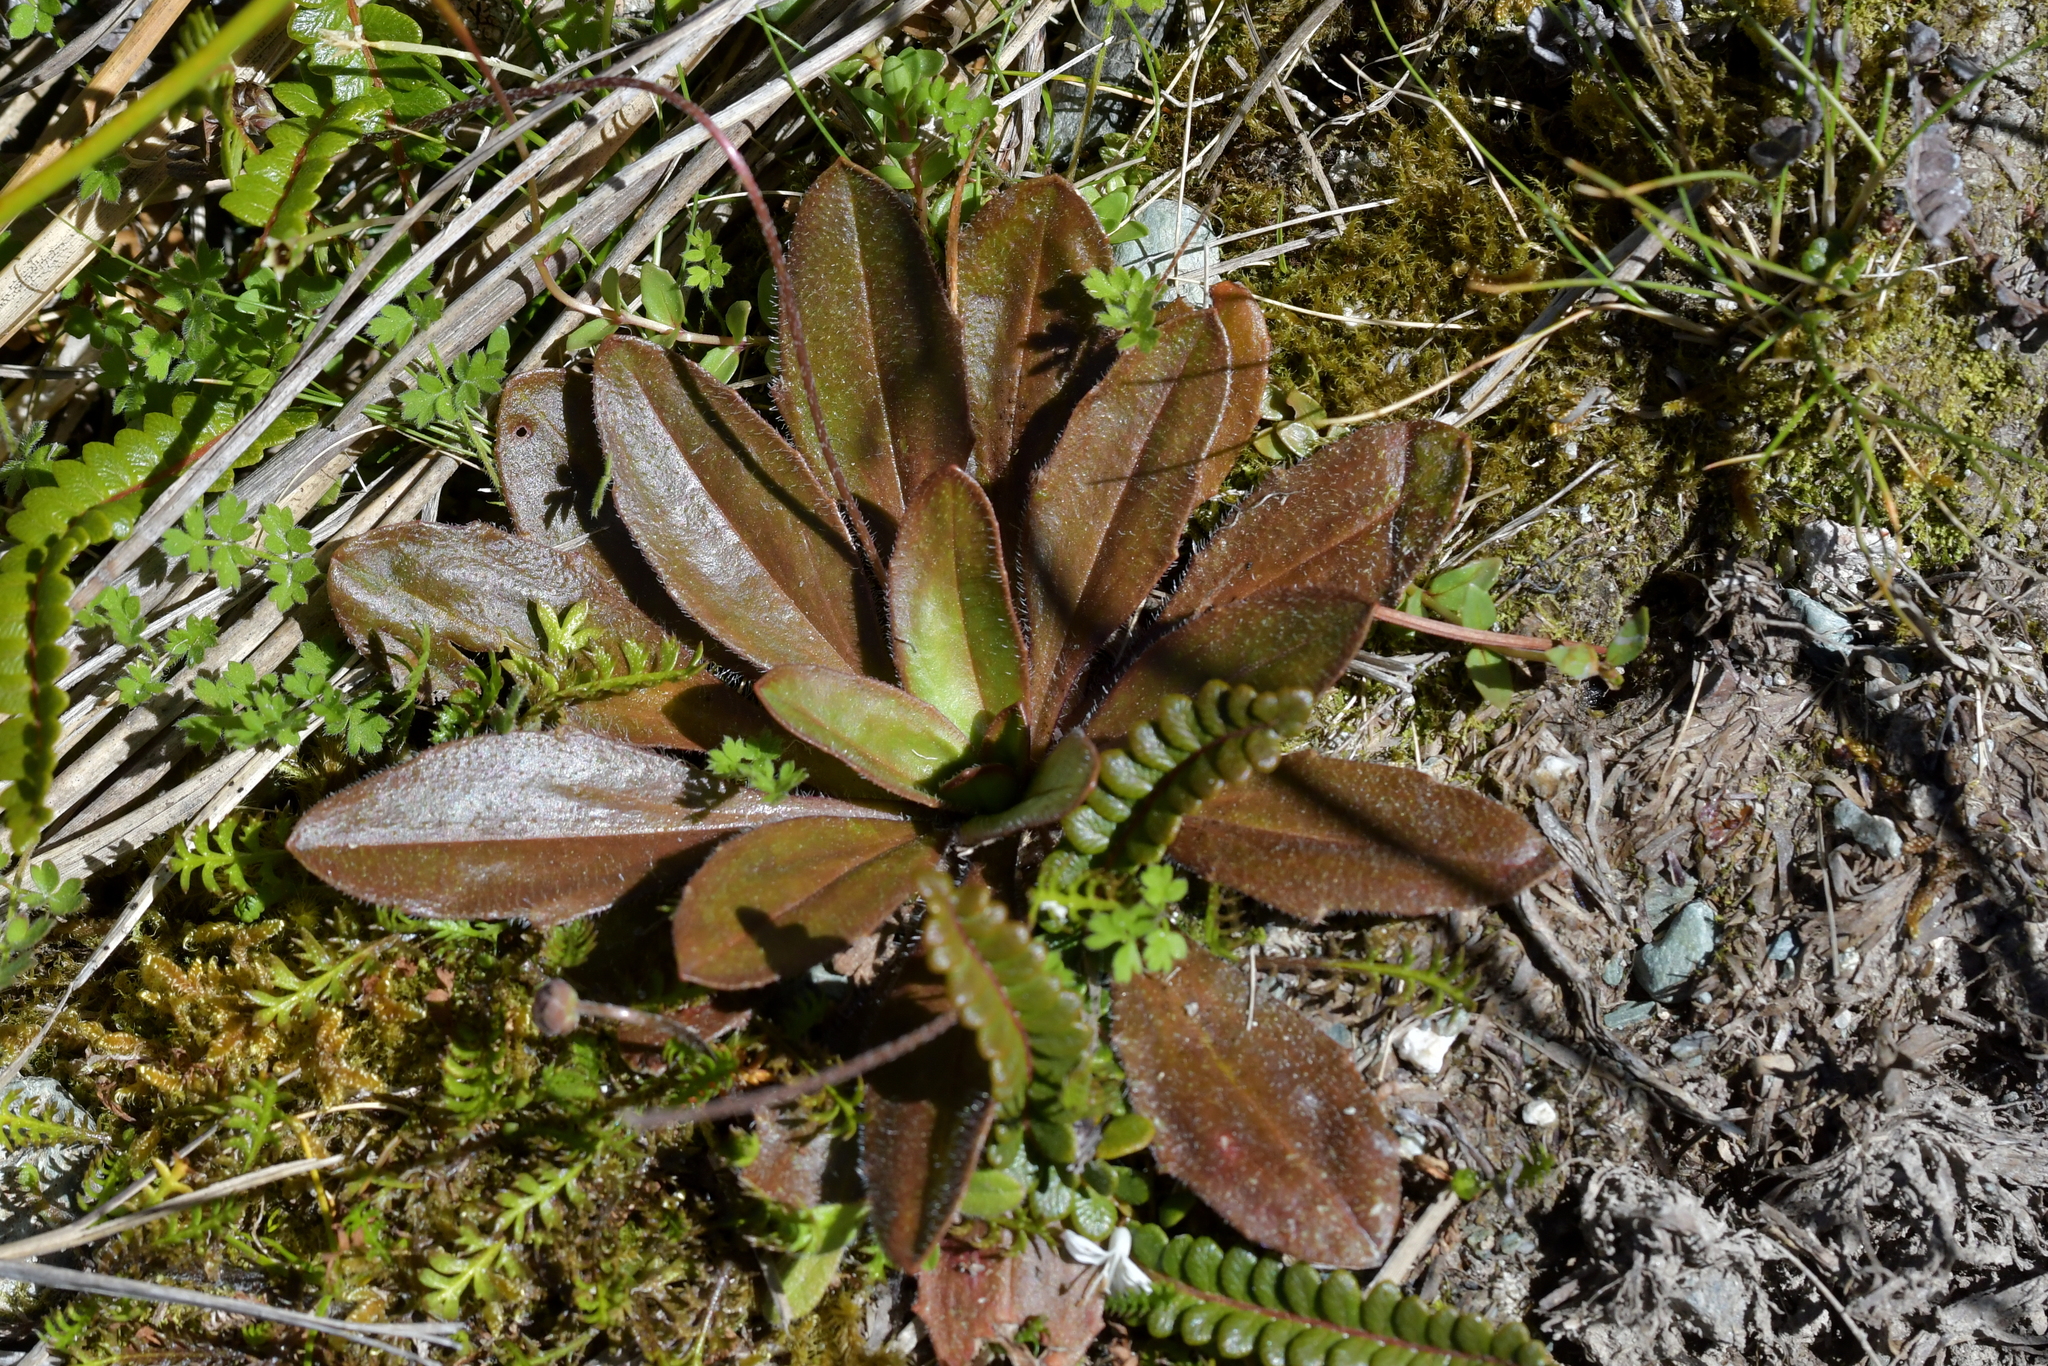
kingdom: Plantae
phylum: Tracheophyta
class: Magnoliopsida
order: Lamiales
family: Plantaginaceae
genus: Plantago
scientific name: Plantago novae-zelandiae
